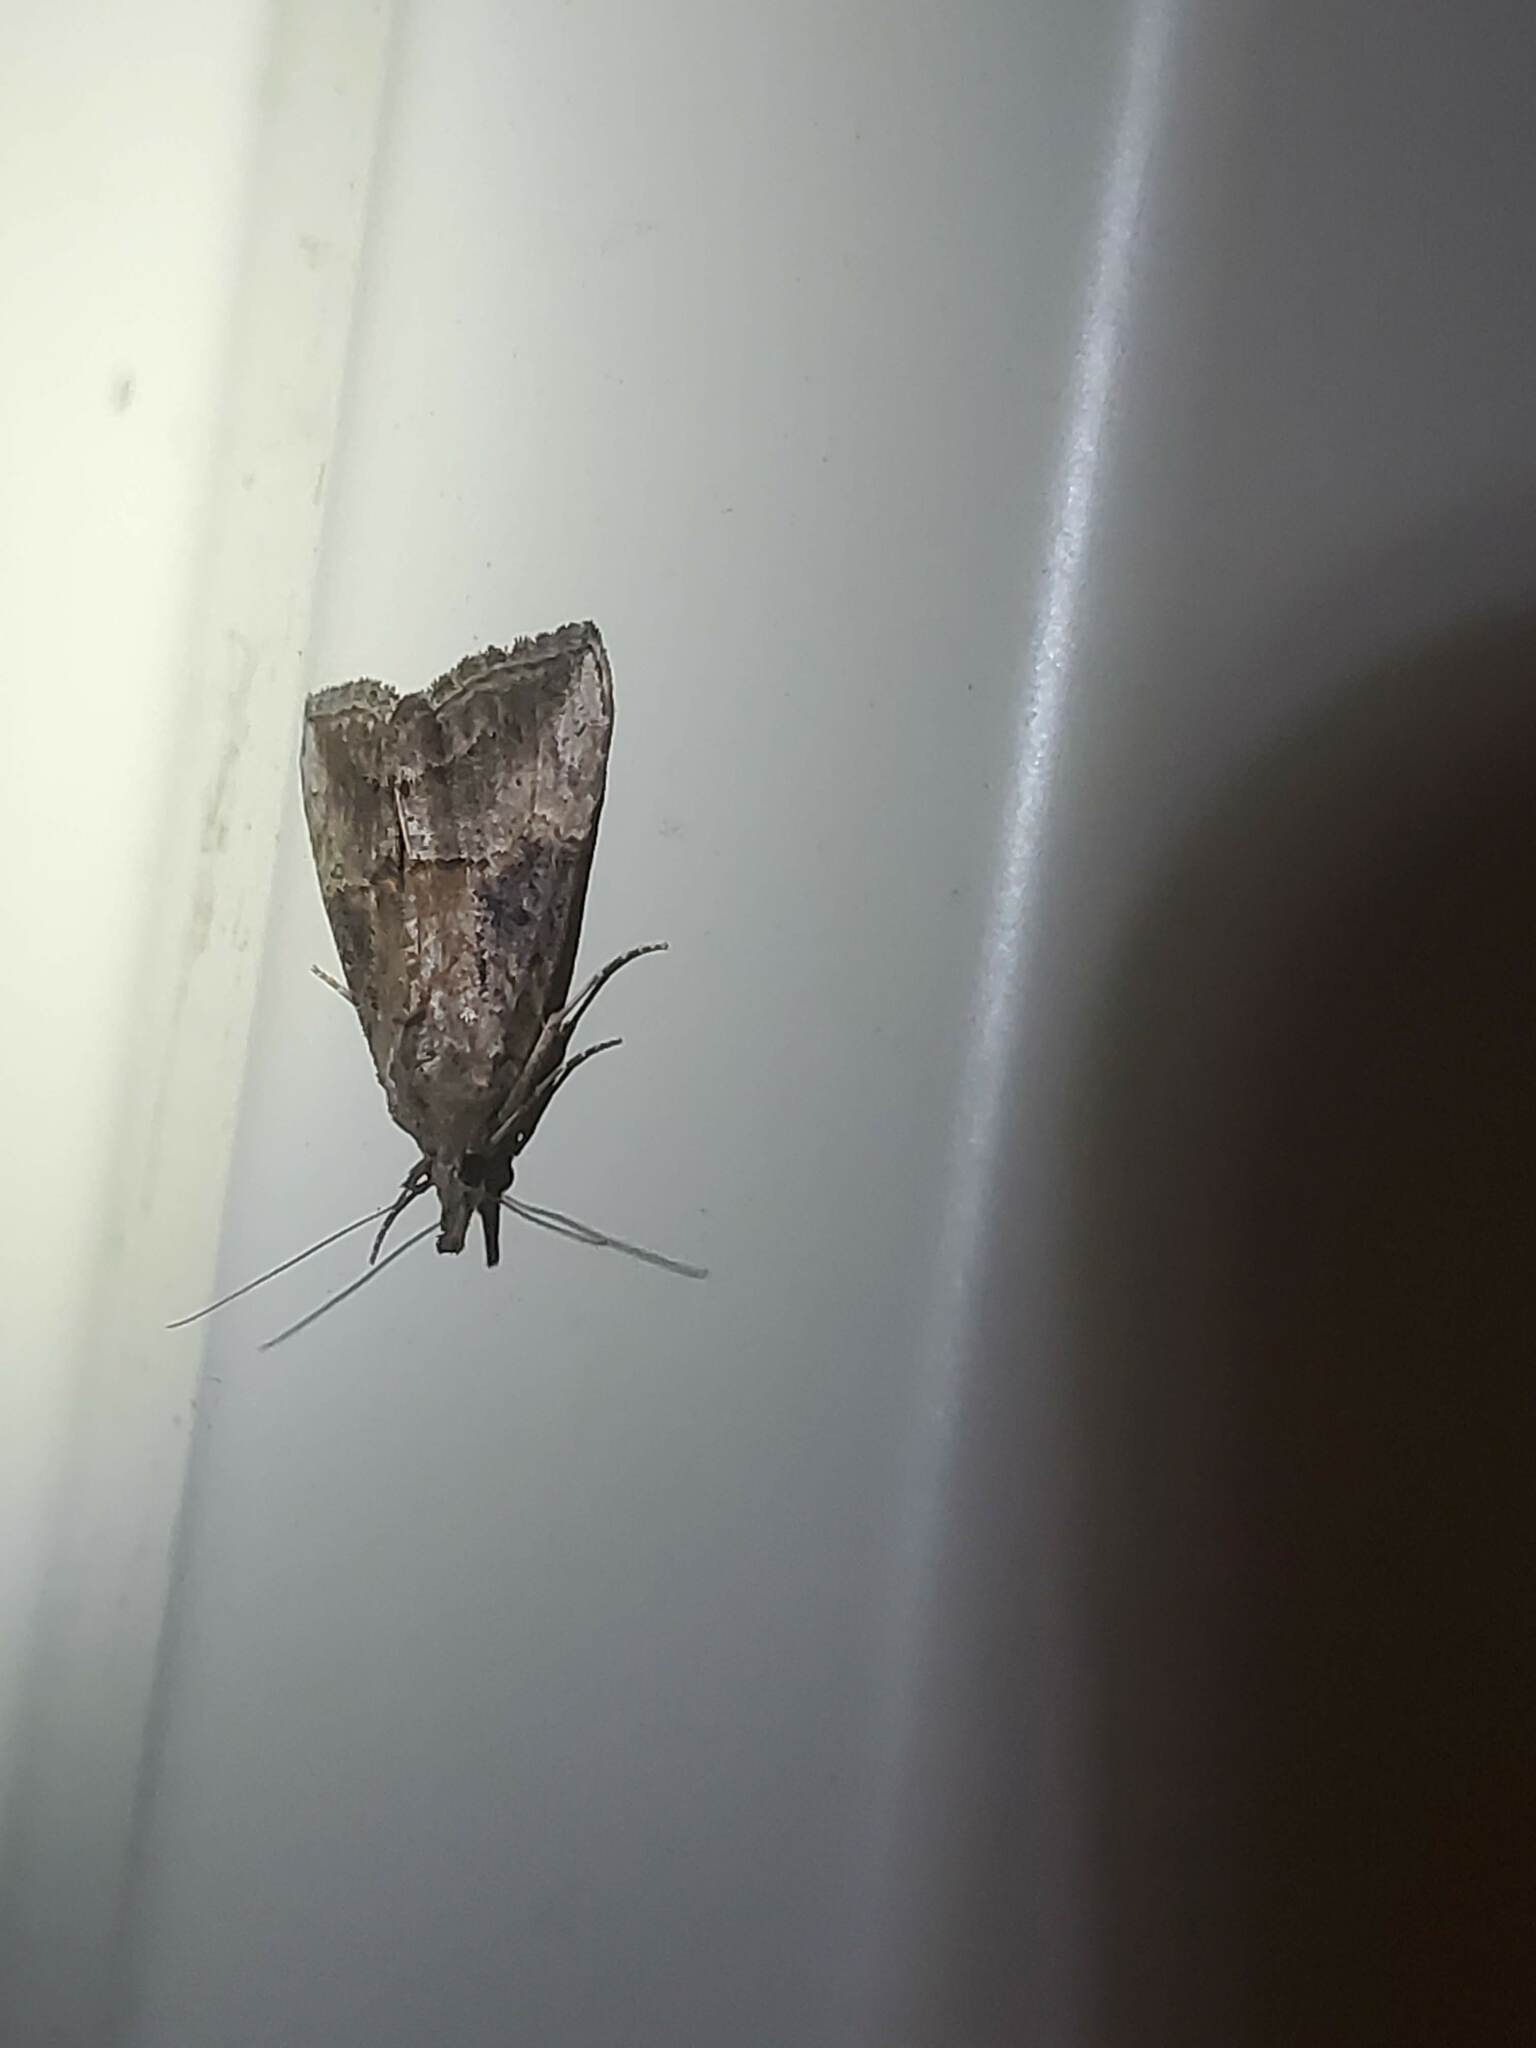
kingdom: Animalia
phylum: Arthropoda
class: Insecta
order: Lepidoptera
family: Erebidae
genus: Hypena
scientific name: Hypena scabra
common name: Green cloverworm
